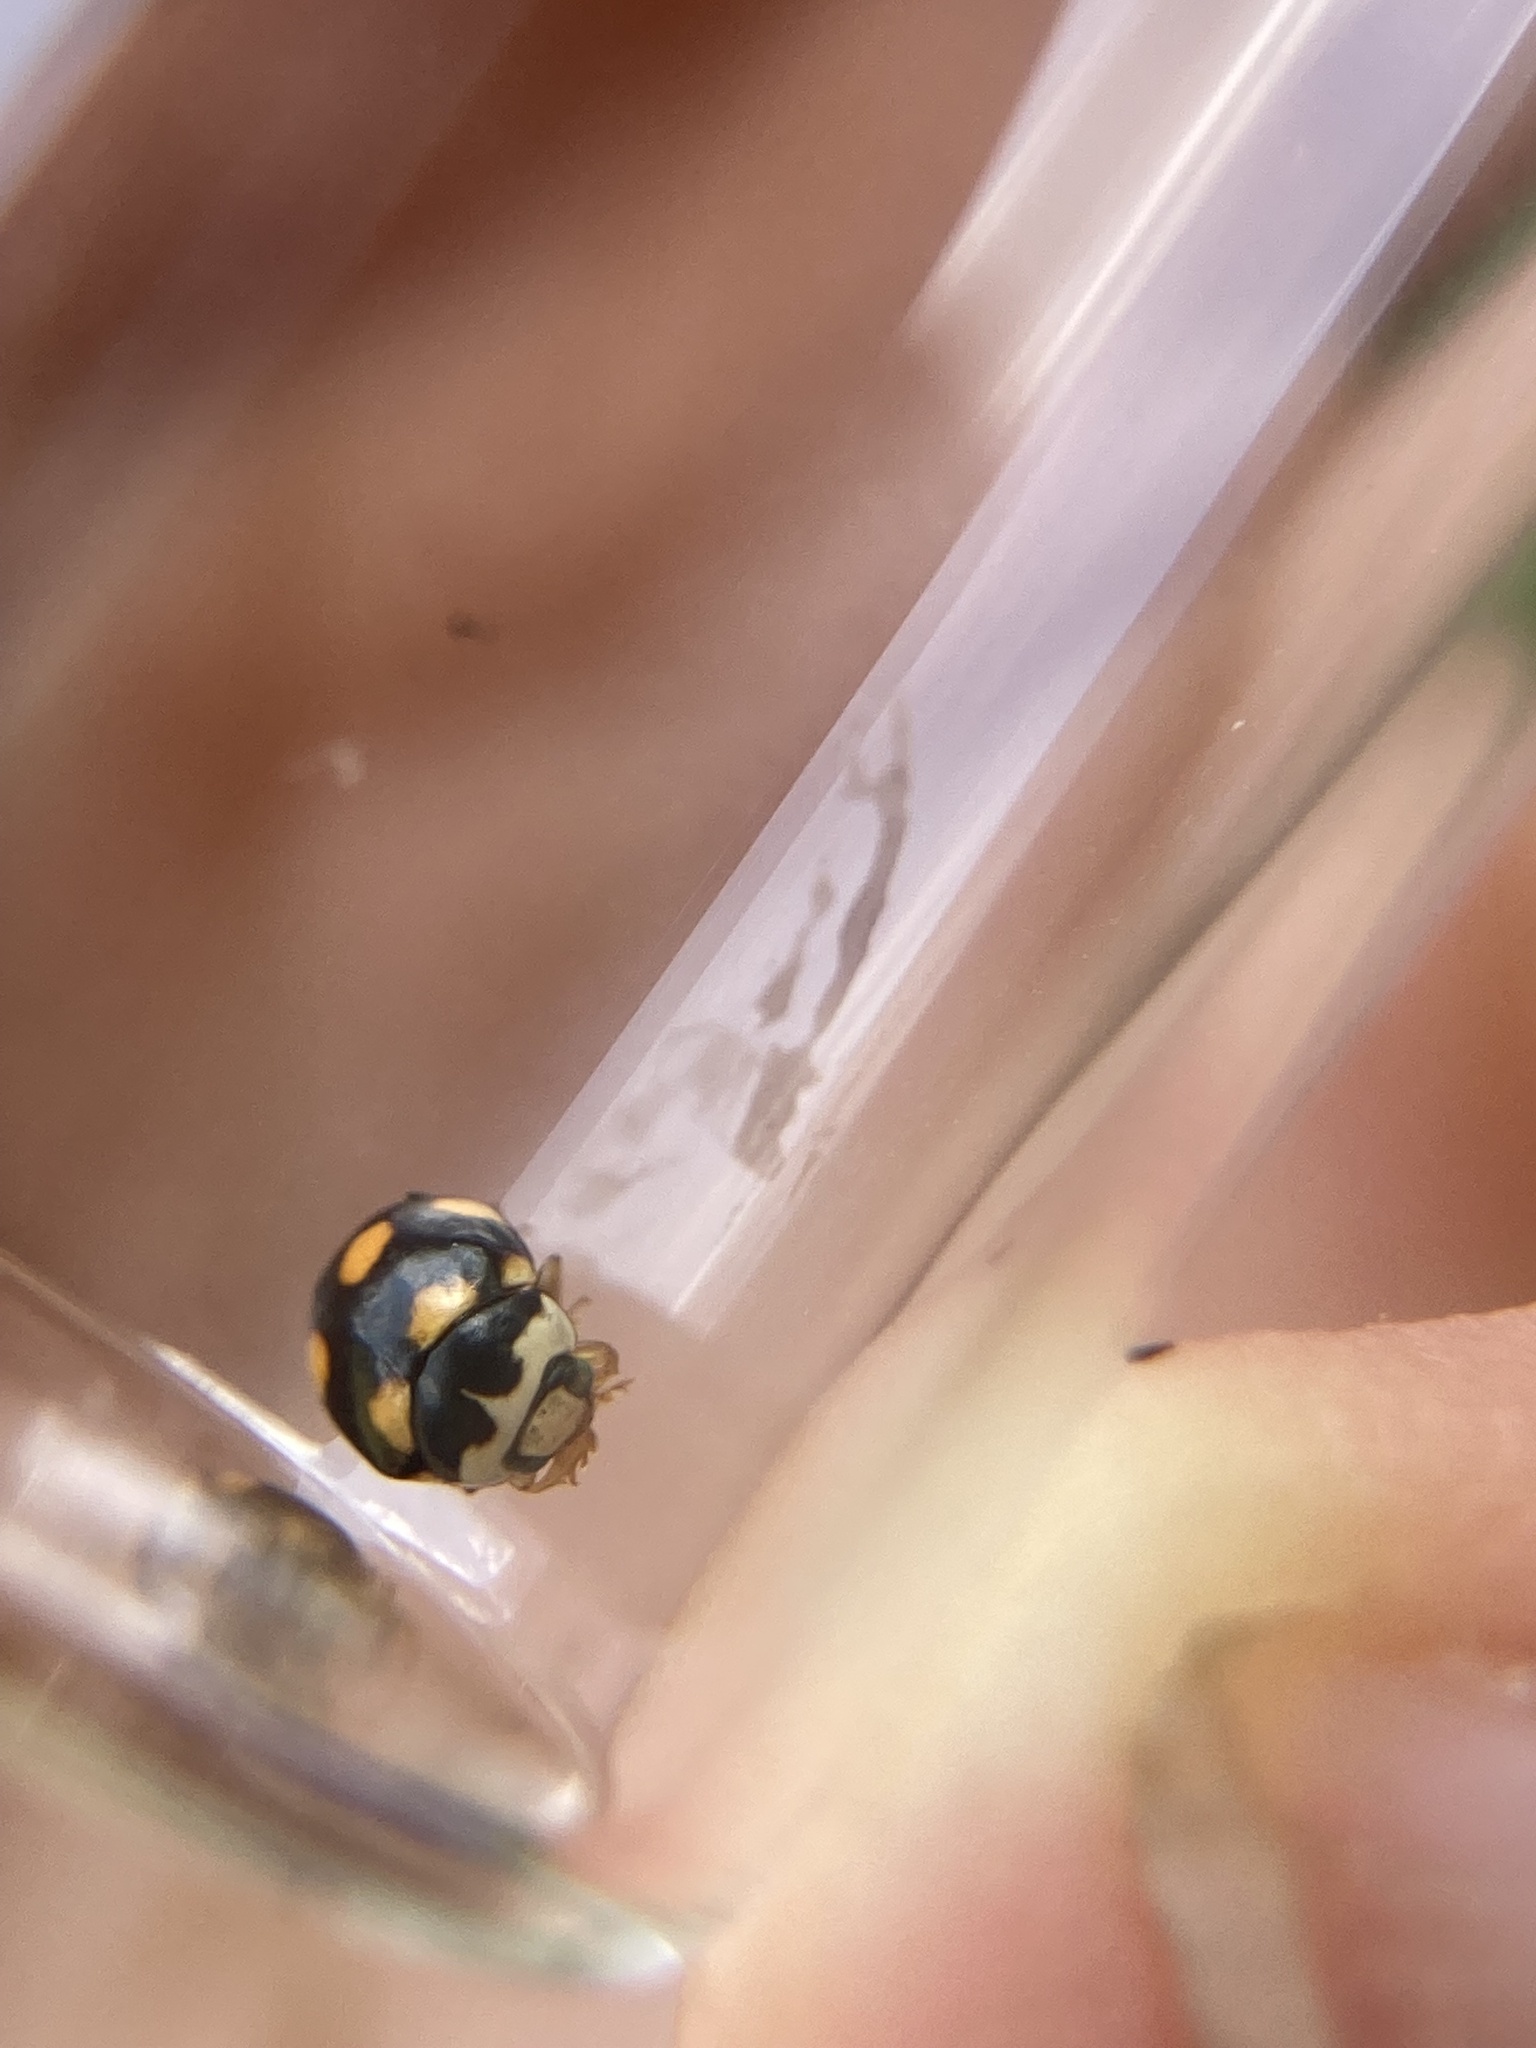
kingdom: Animalia
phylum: Arthropoda
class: Insecta
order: Coleoptera
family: Coccinellidae
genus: Brachiacantha
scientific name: Brachiacantha ursina
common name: Ursine spurleg lady beetle
